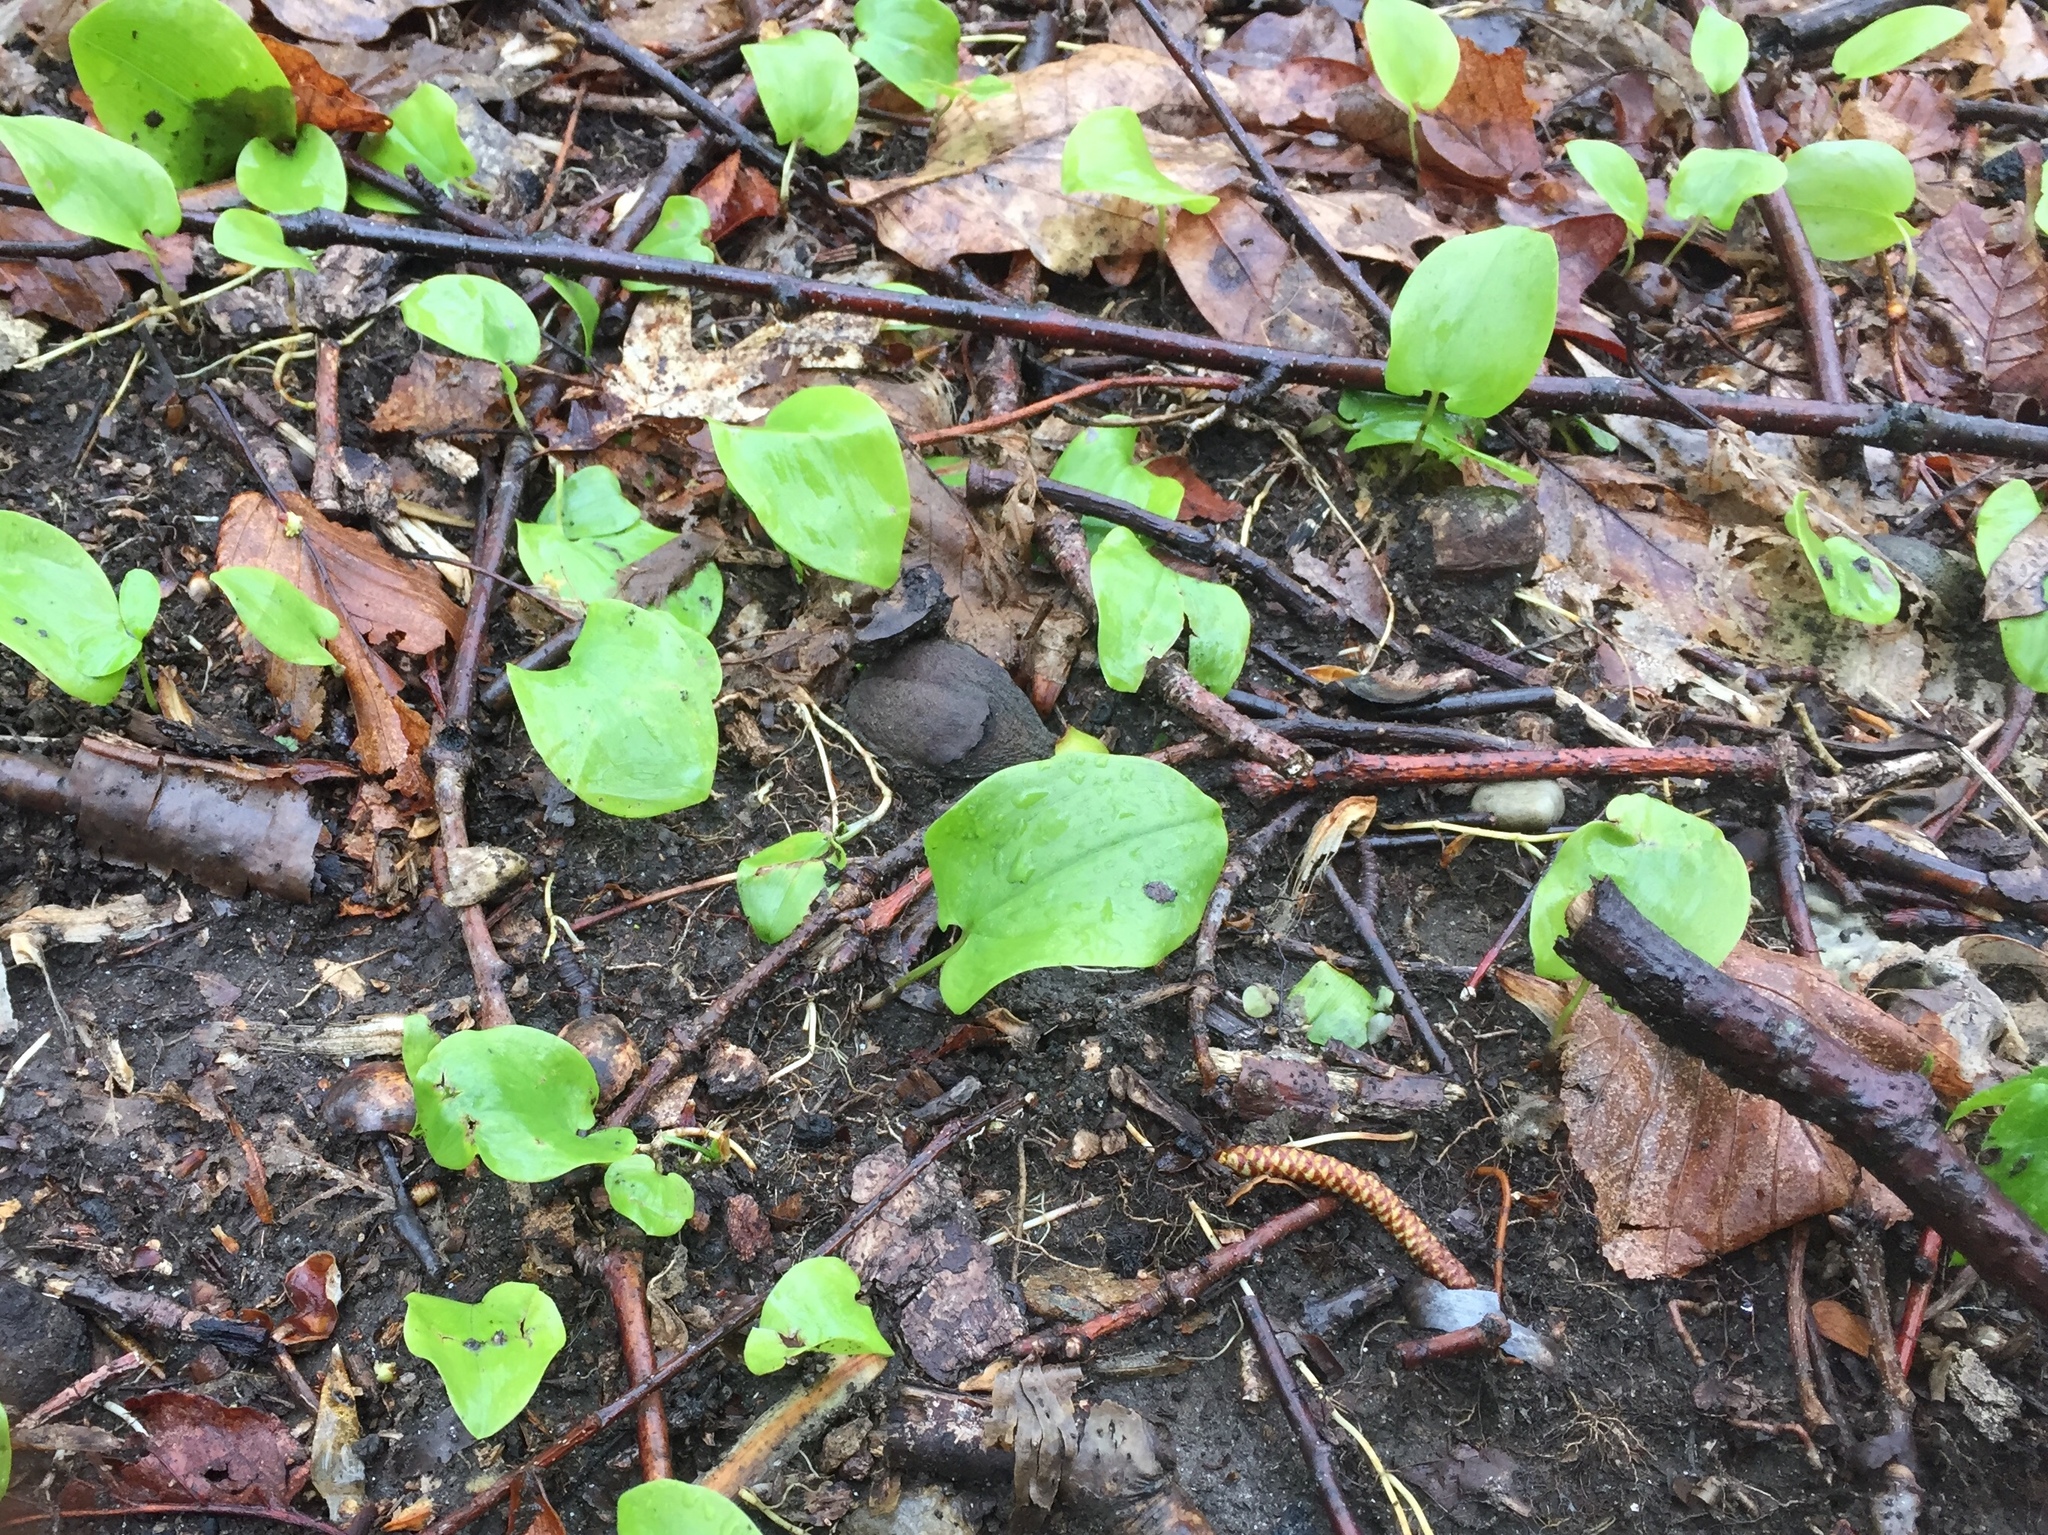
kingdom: Plantae
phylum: Tracheophyta
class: Liliopsida
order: Asparagales
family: Asparagaceae
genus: Maianthemum
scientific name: Maianthemum canadense
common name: False lily-of-the-valley
